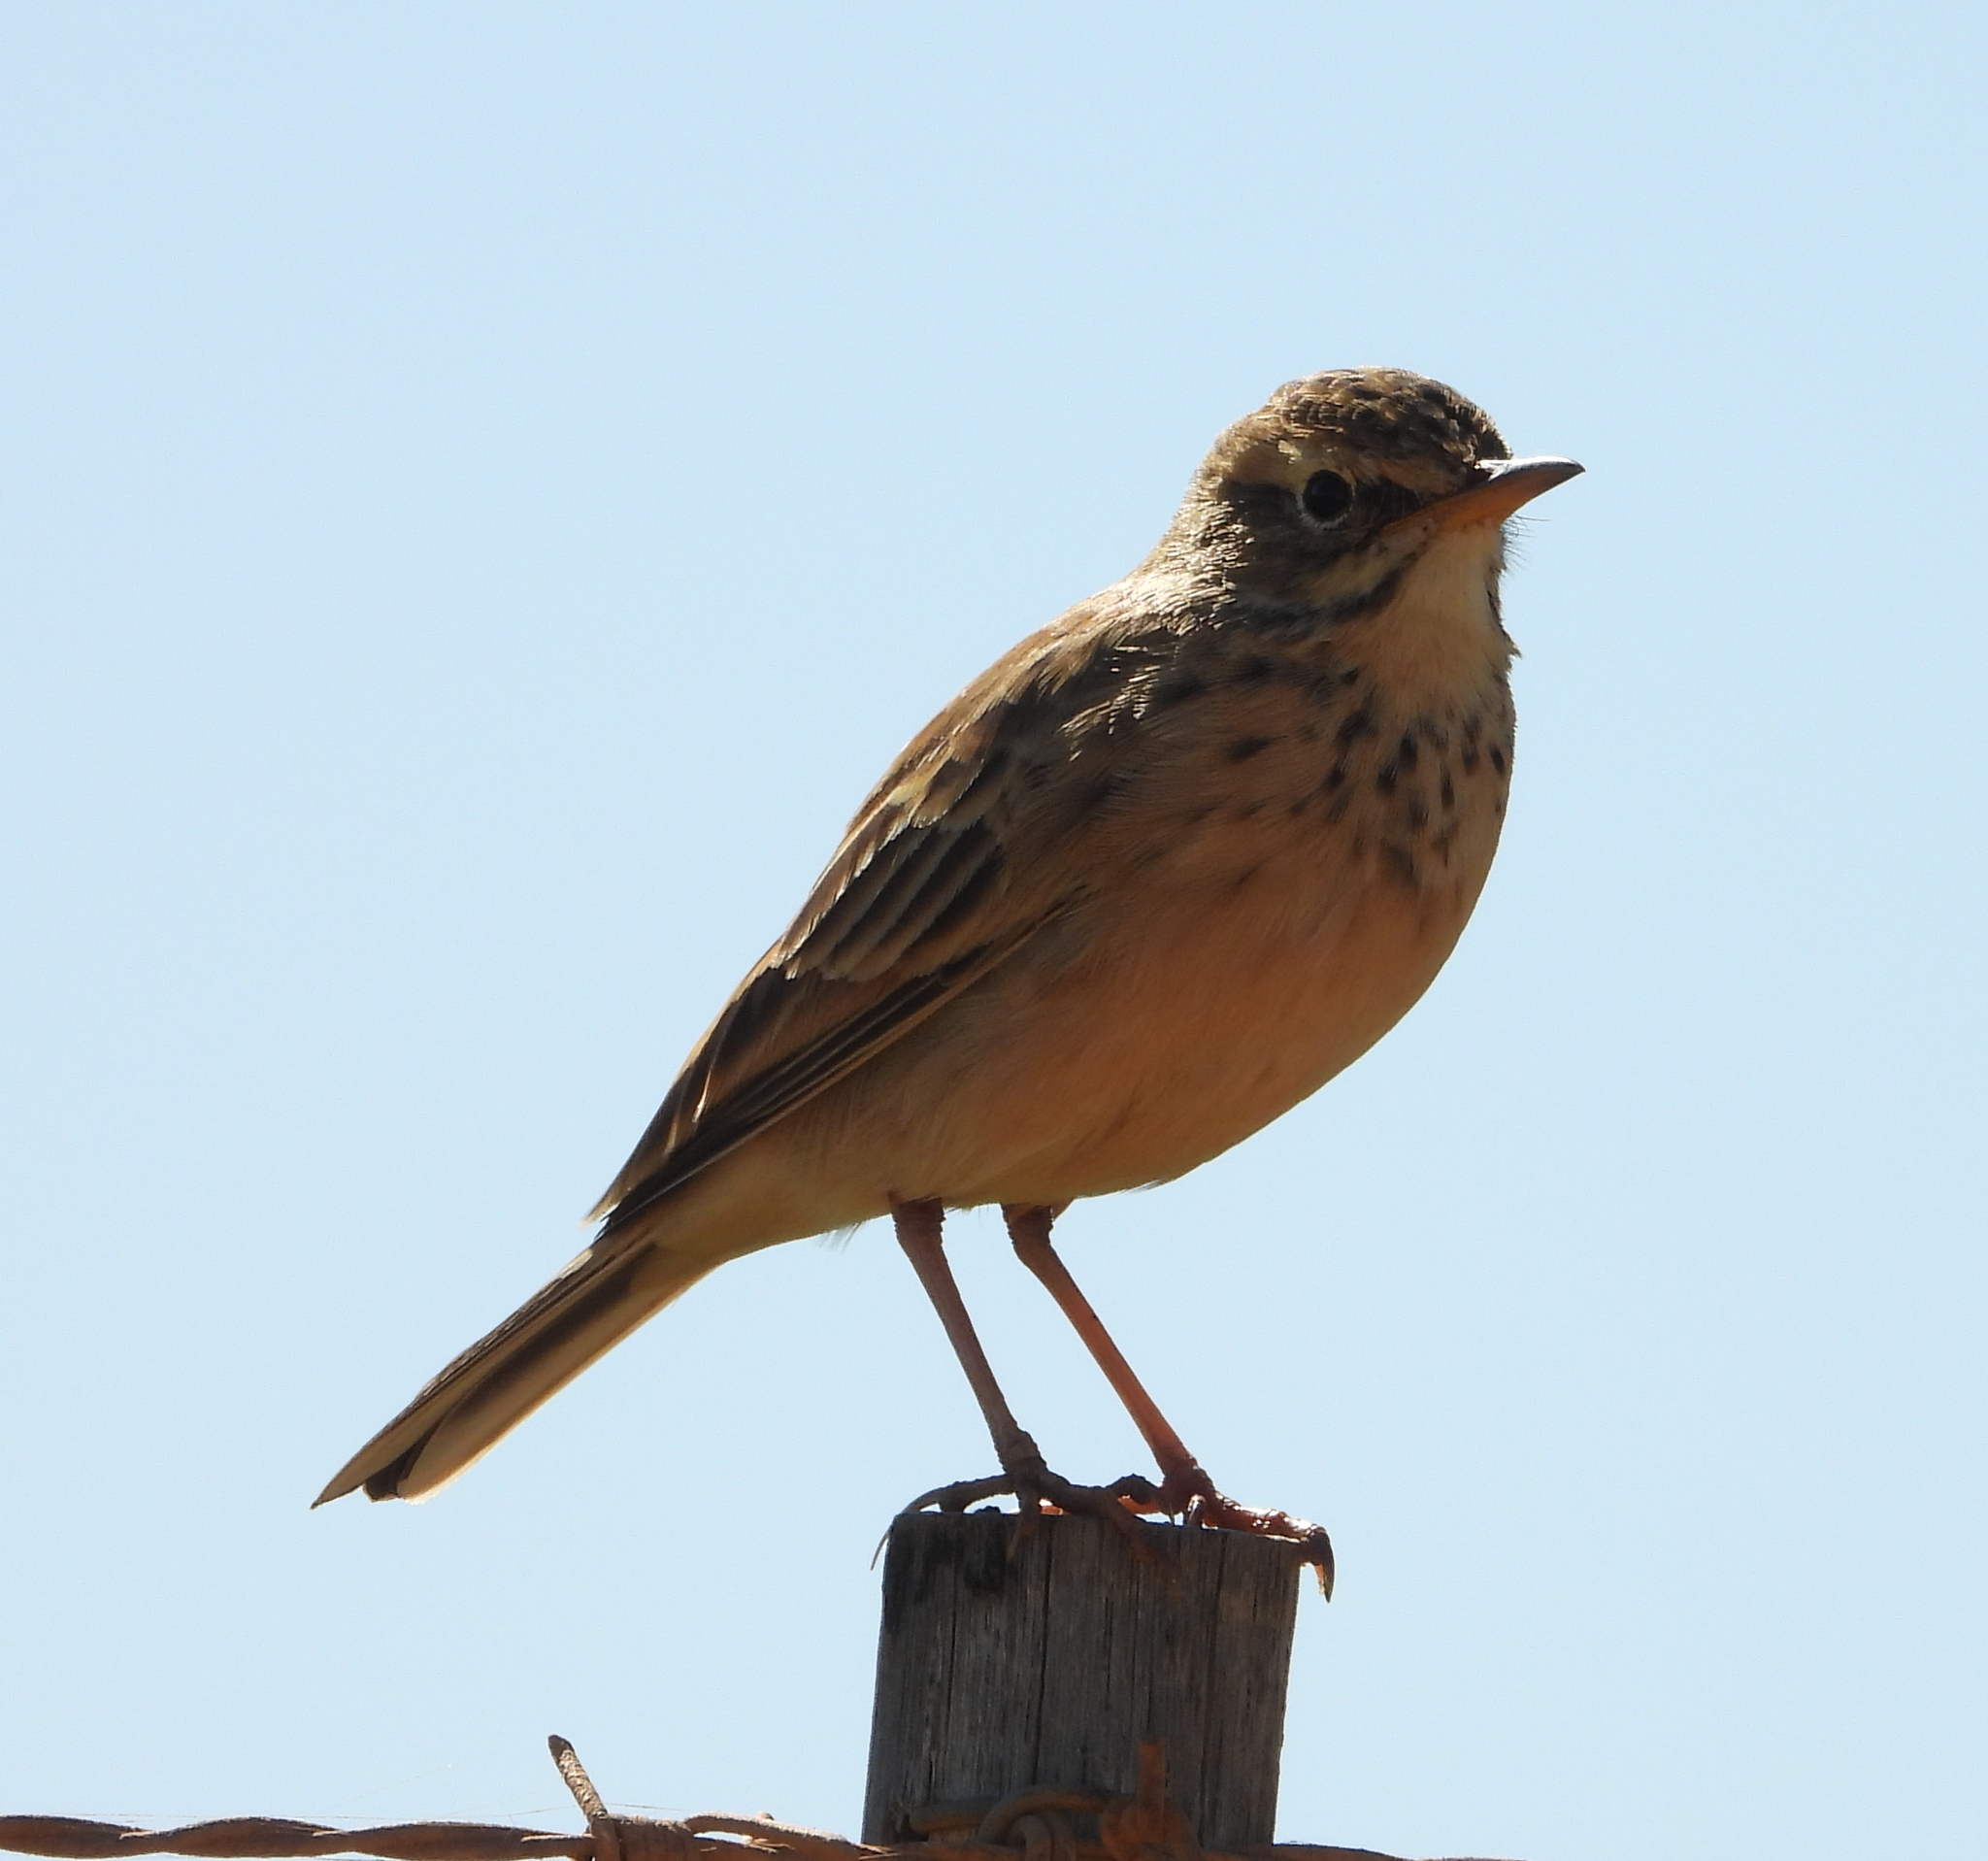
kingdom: Animalia
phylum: Chordata
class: Aves
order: Passeriformes
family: Motacillidae
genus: Anthus
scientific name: Anthus cinnamomeus
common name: African pipit
